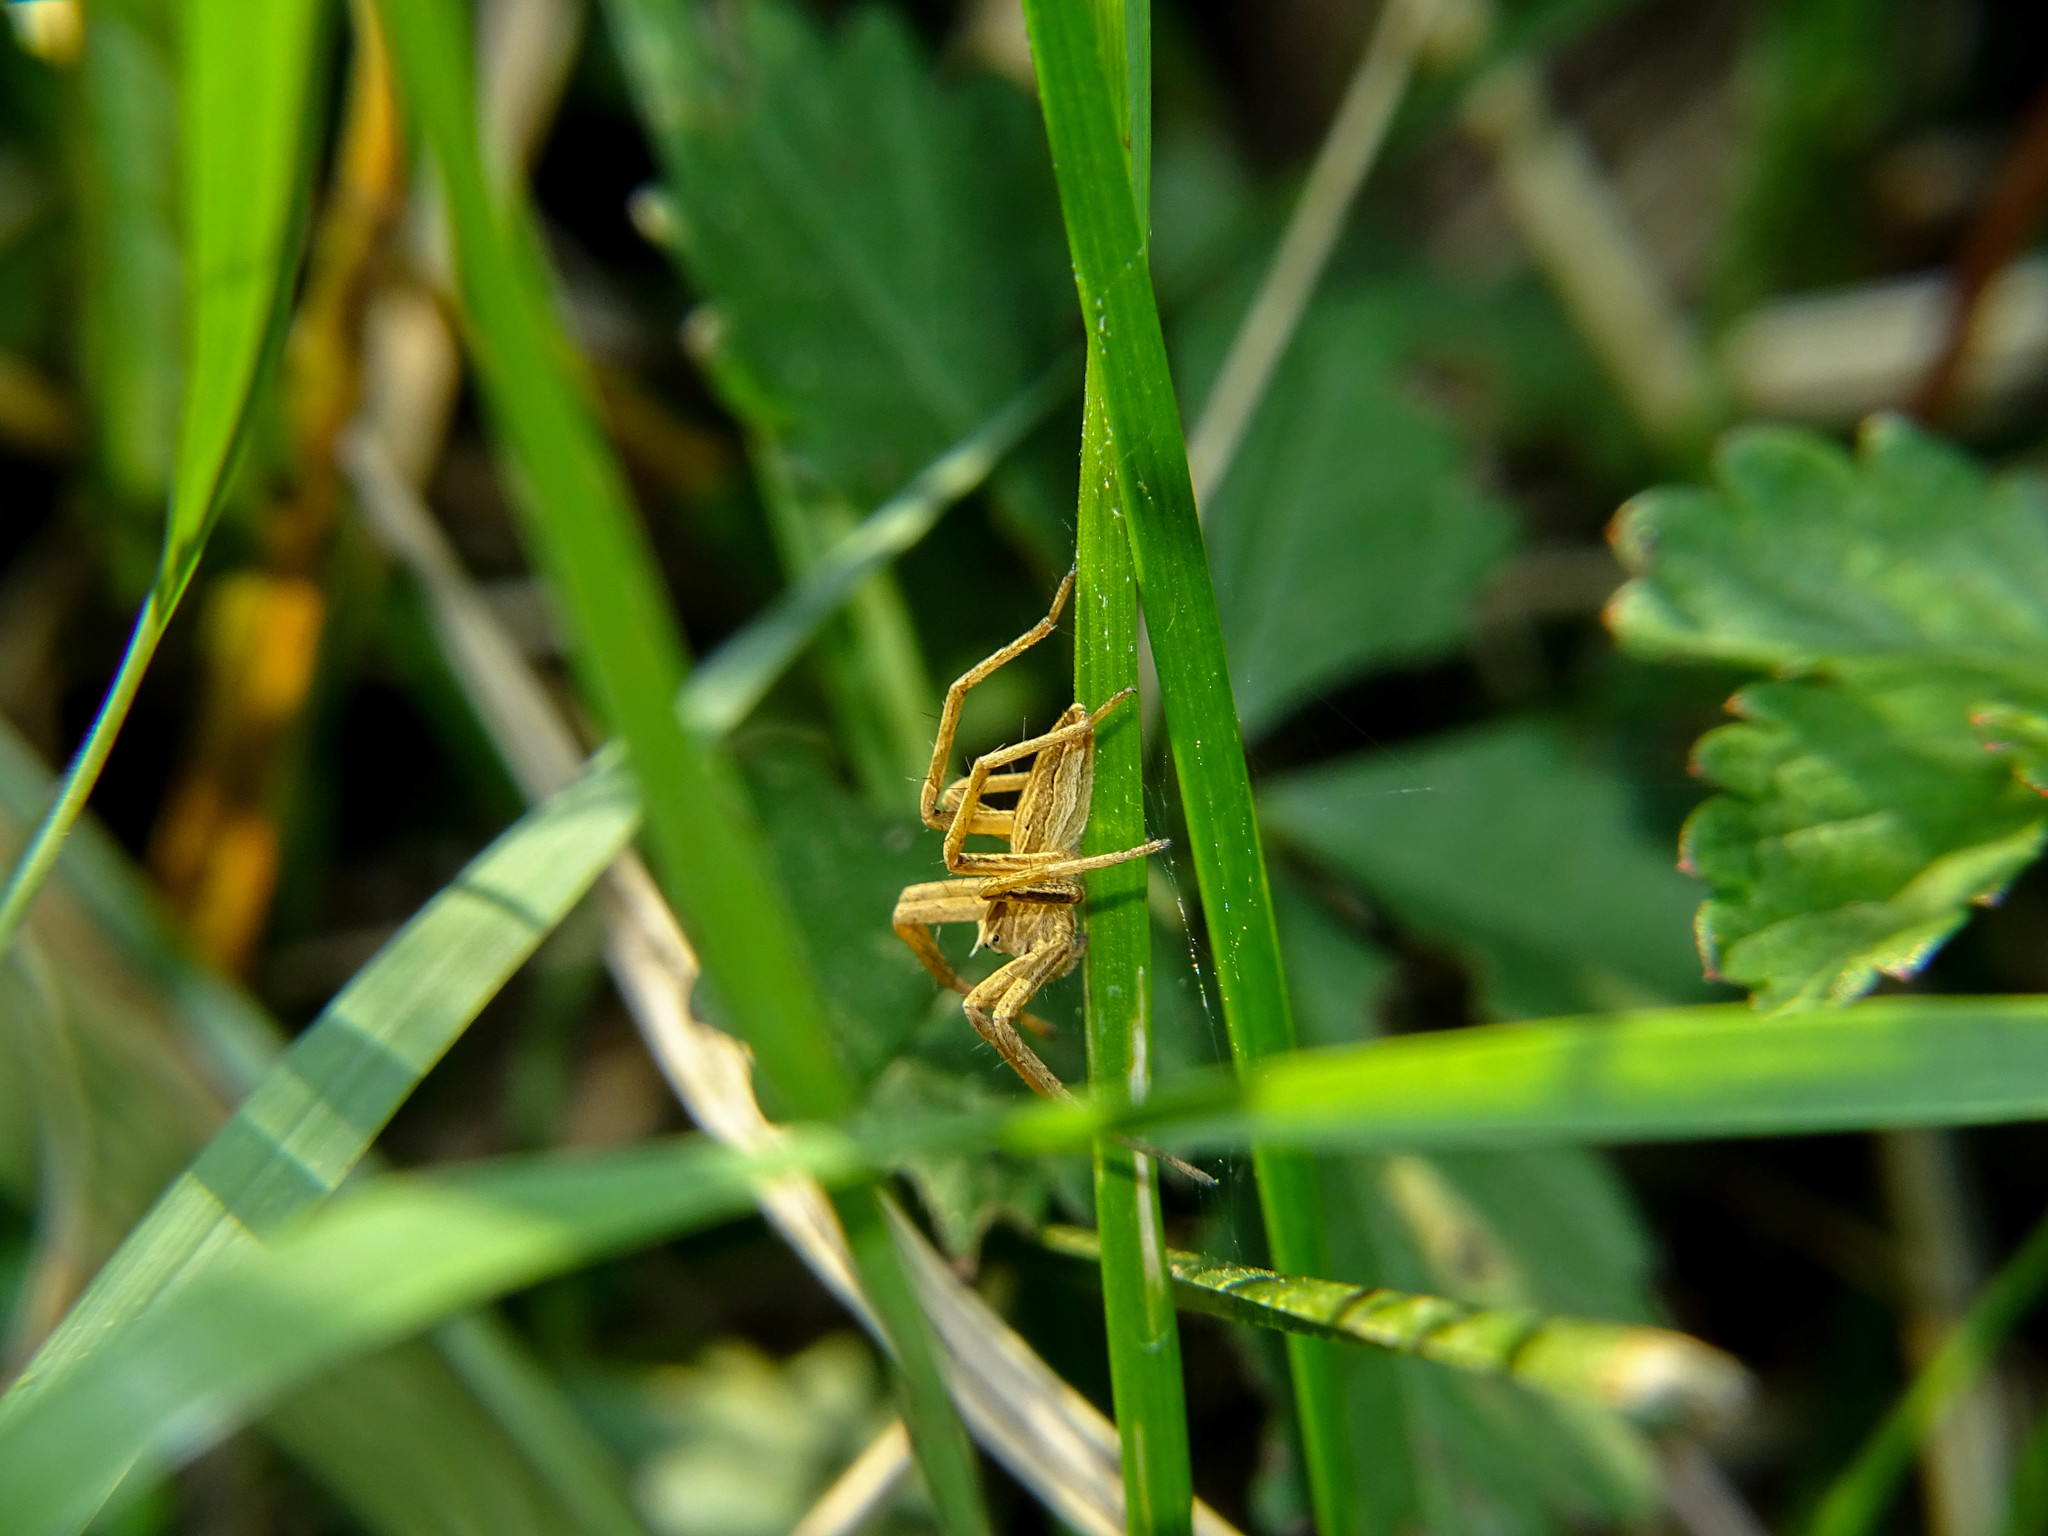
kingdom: Animalia
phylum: Arthropoda
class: Arachnida
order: Araneae
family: Pisauridae
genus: Pisaura
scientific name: Pisaura mirabilis
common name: Tent spider
